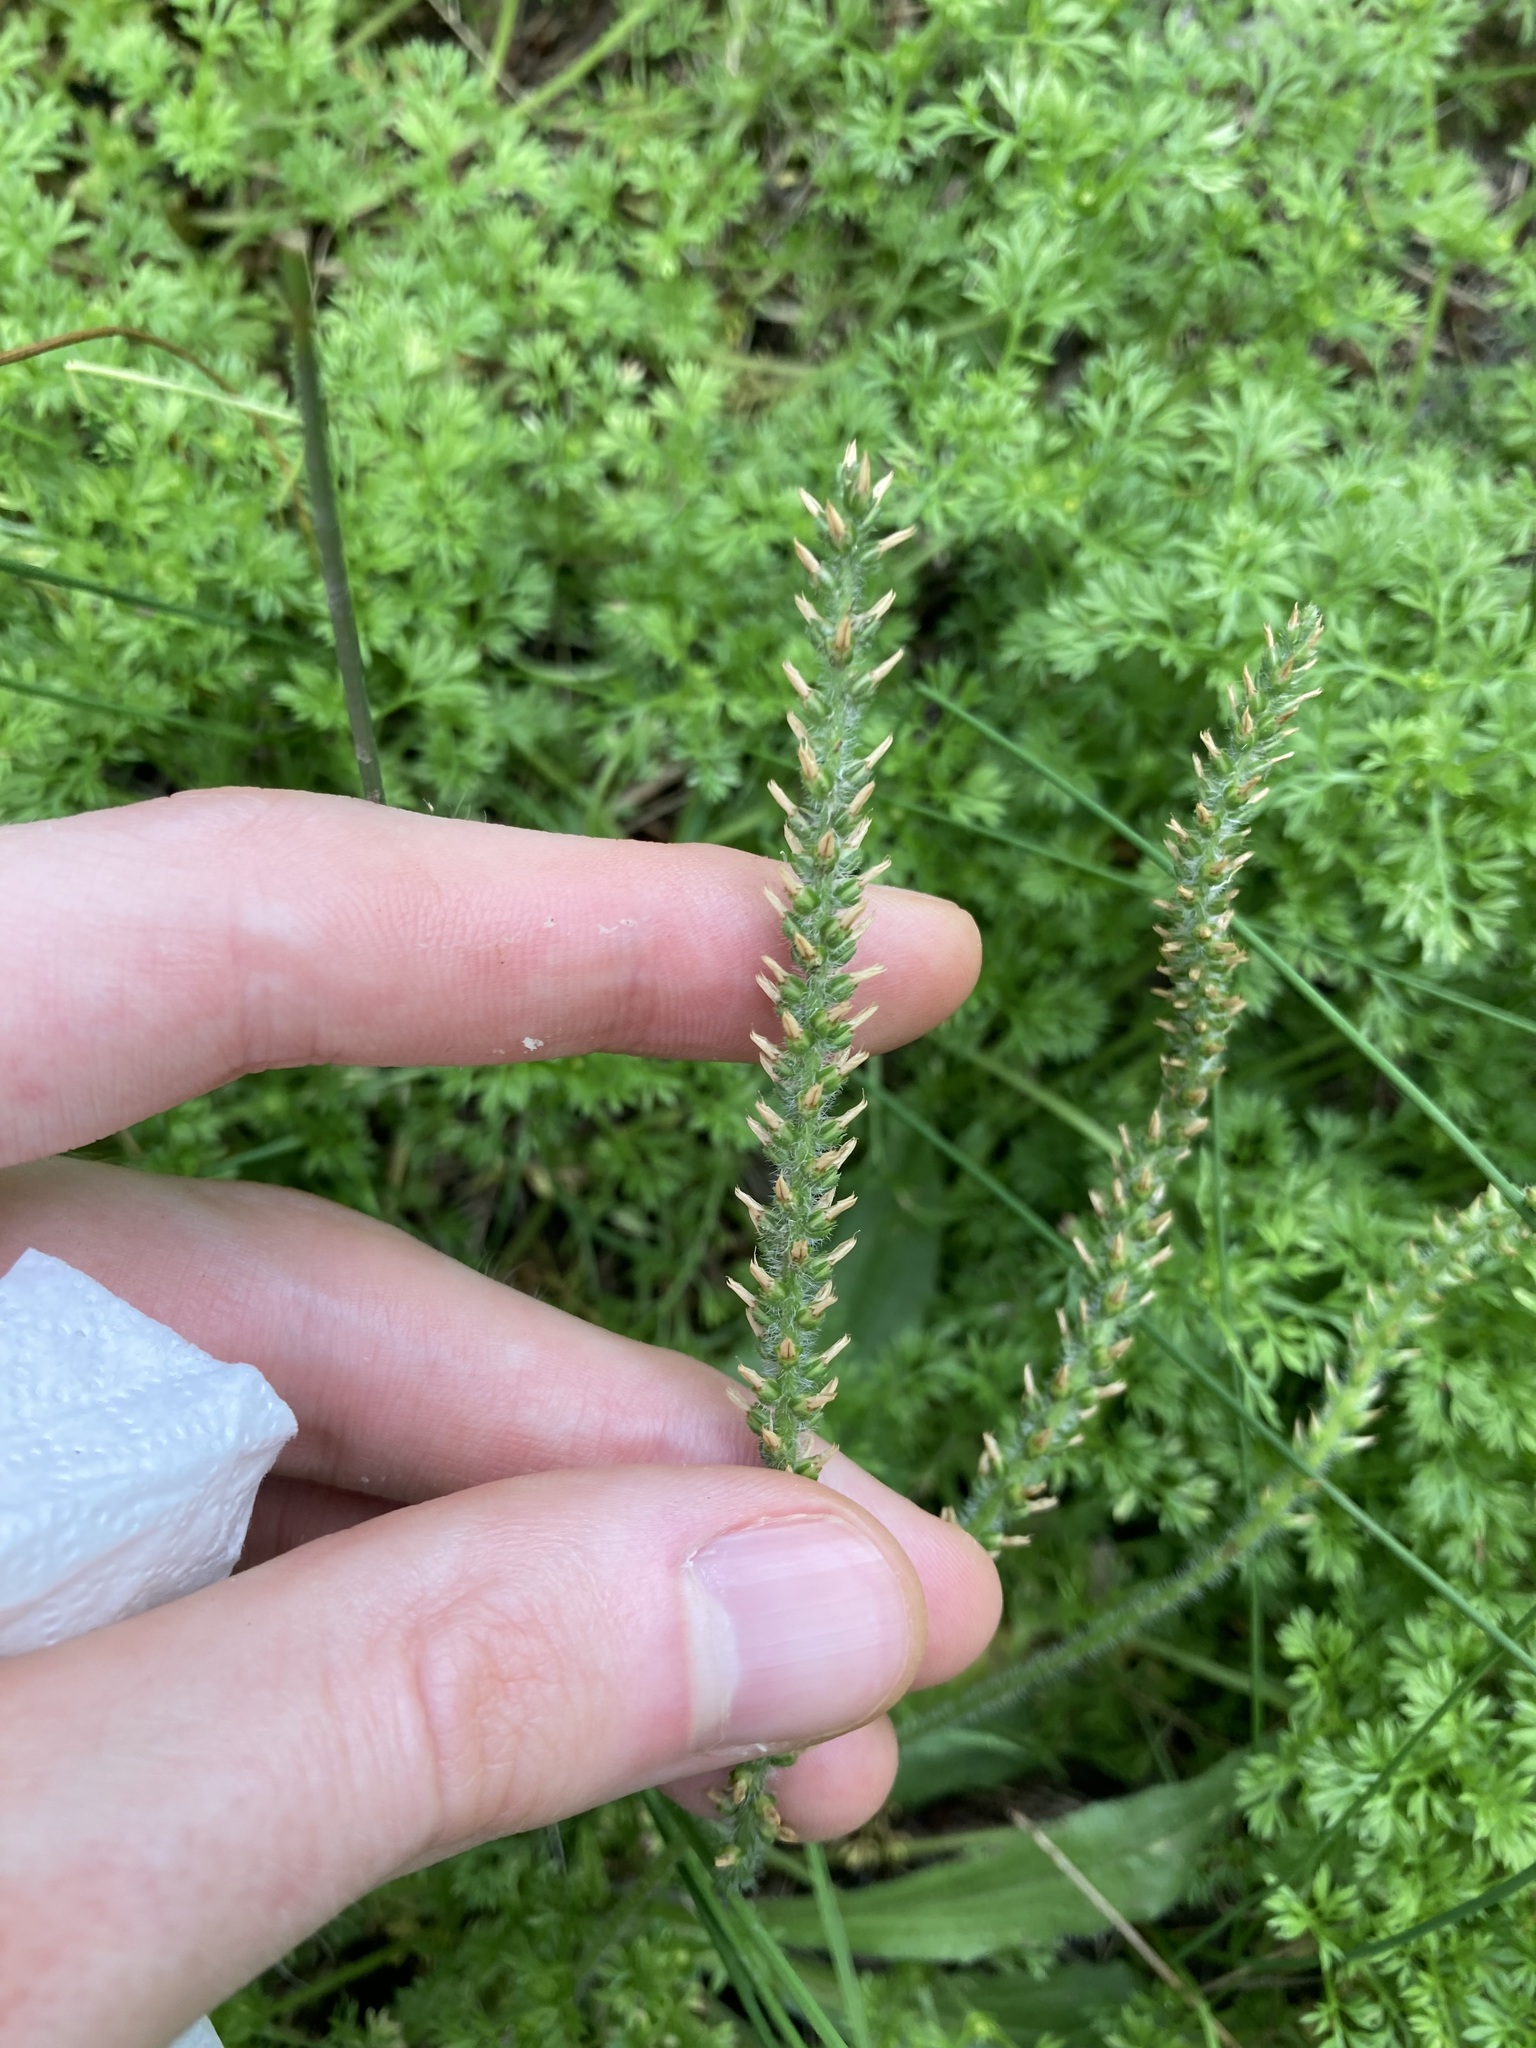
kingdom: Plantae
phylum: Tracheophyta
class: Magnoliopsida
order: Lamiales
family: Plantaginaceae
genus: Plantago
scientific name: Plantago myosuros
